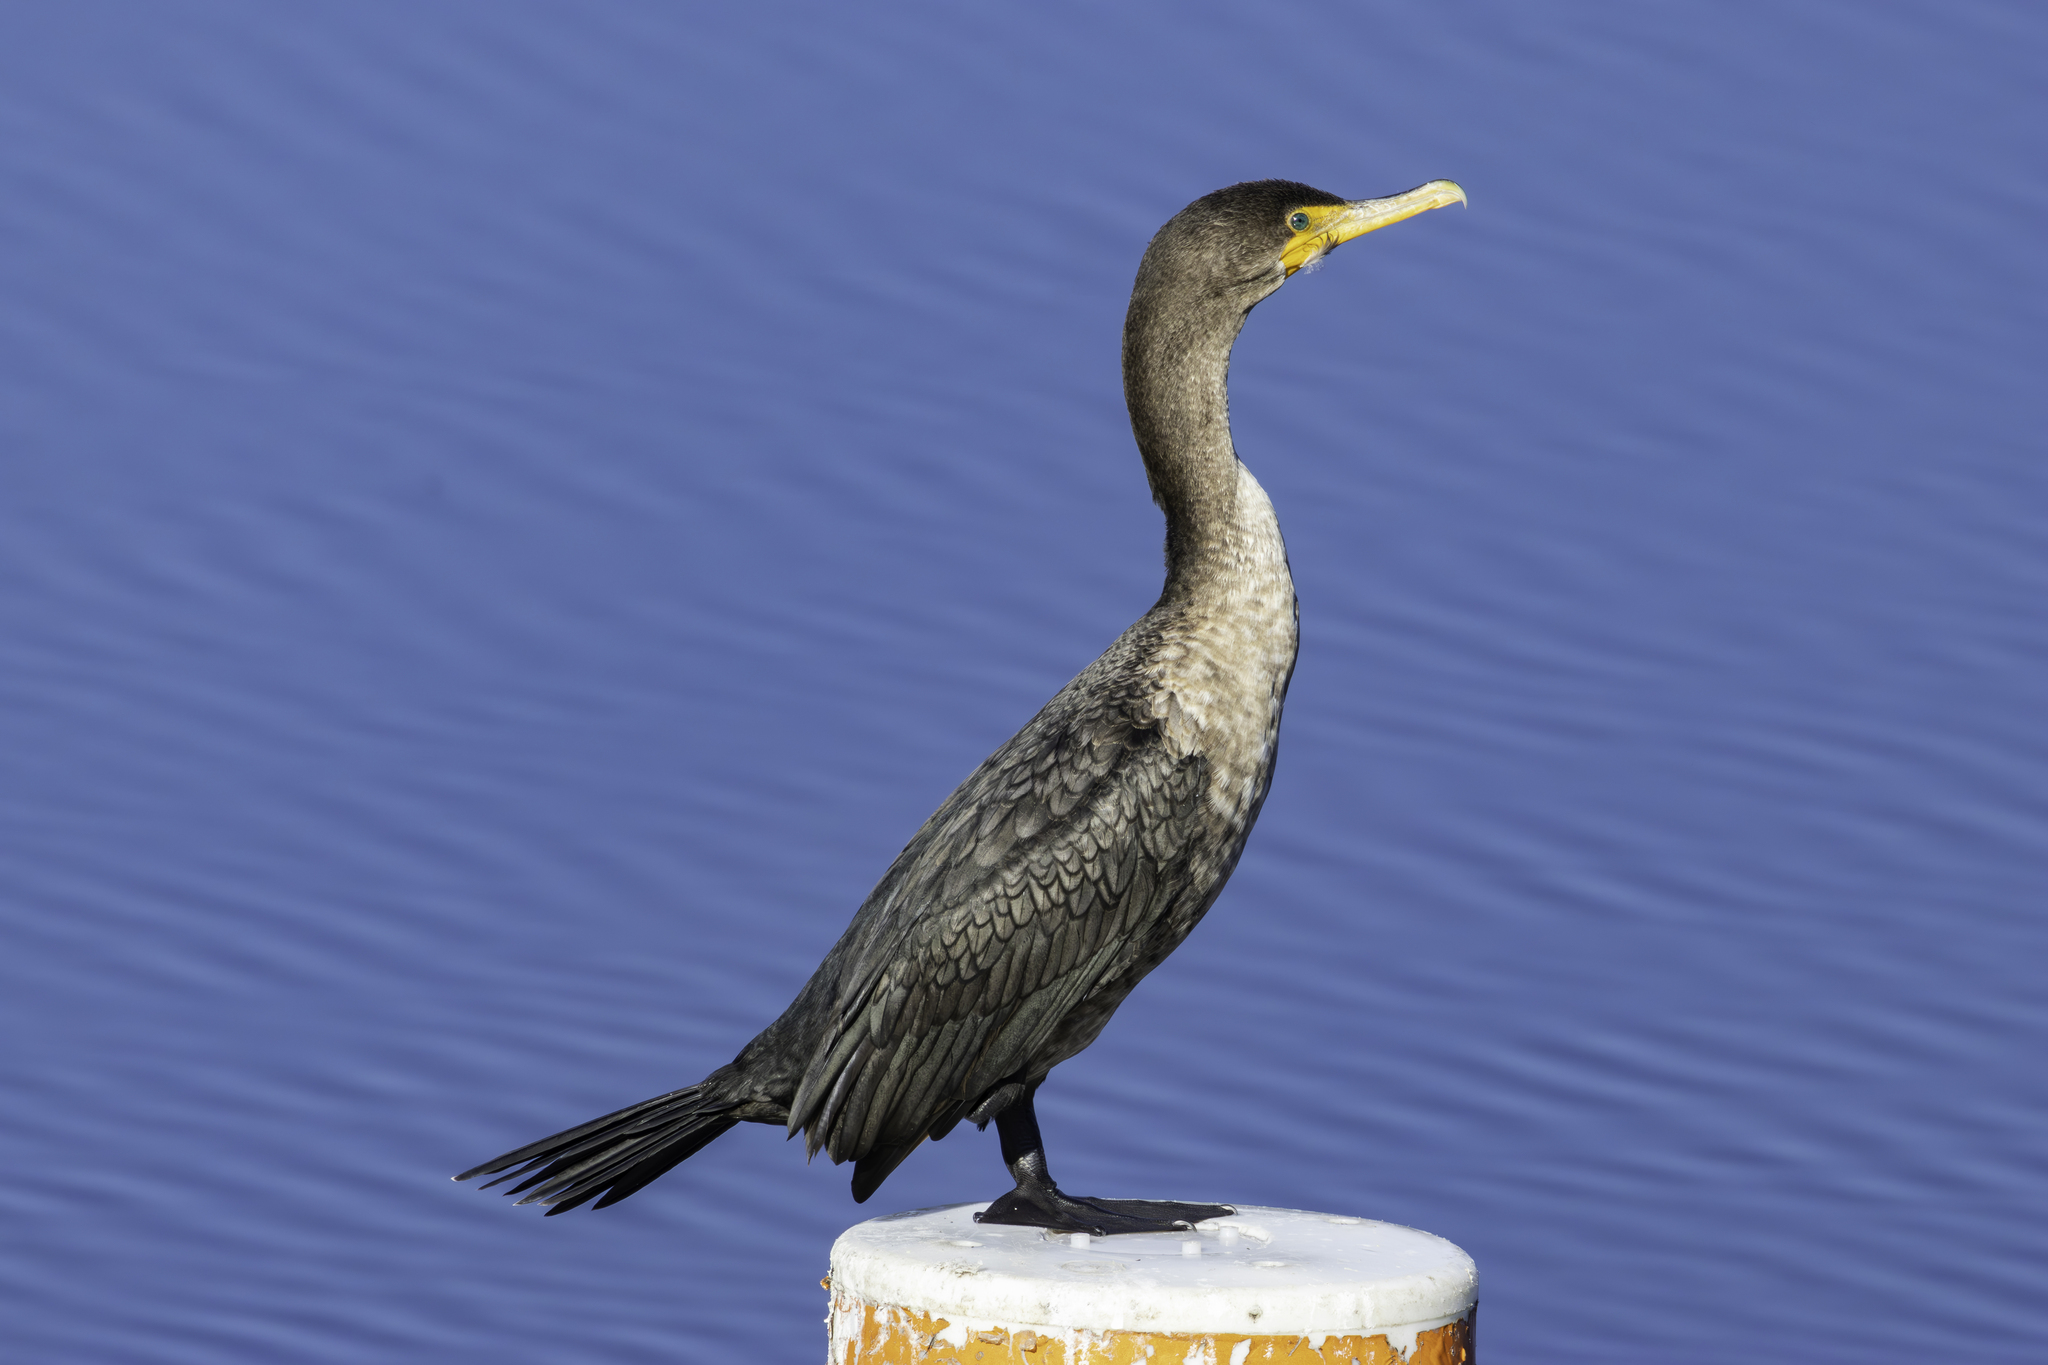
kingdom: Animalia
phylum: Chordata
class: Aves
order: Suliformes
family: Phalacrocoracidae
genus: Phalacrocorax
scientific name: Phalacrocorax auritus
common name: Double-crested cormorant
